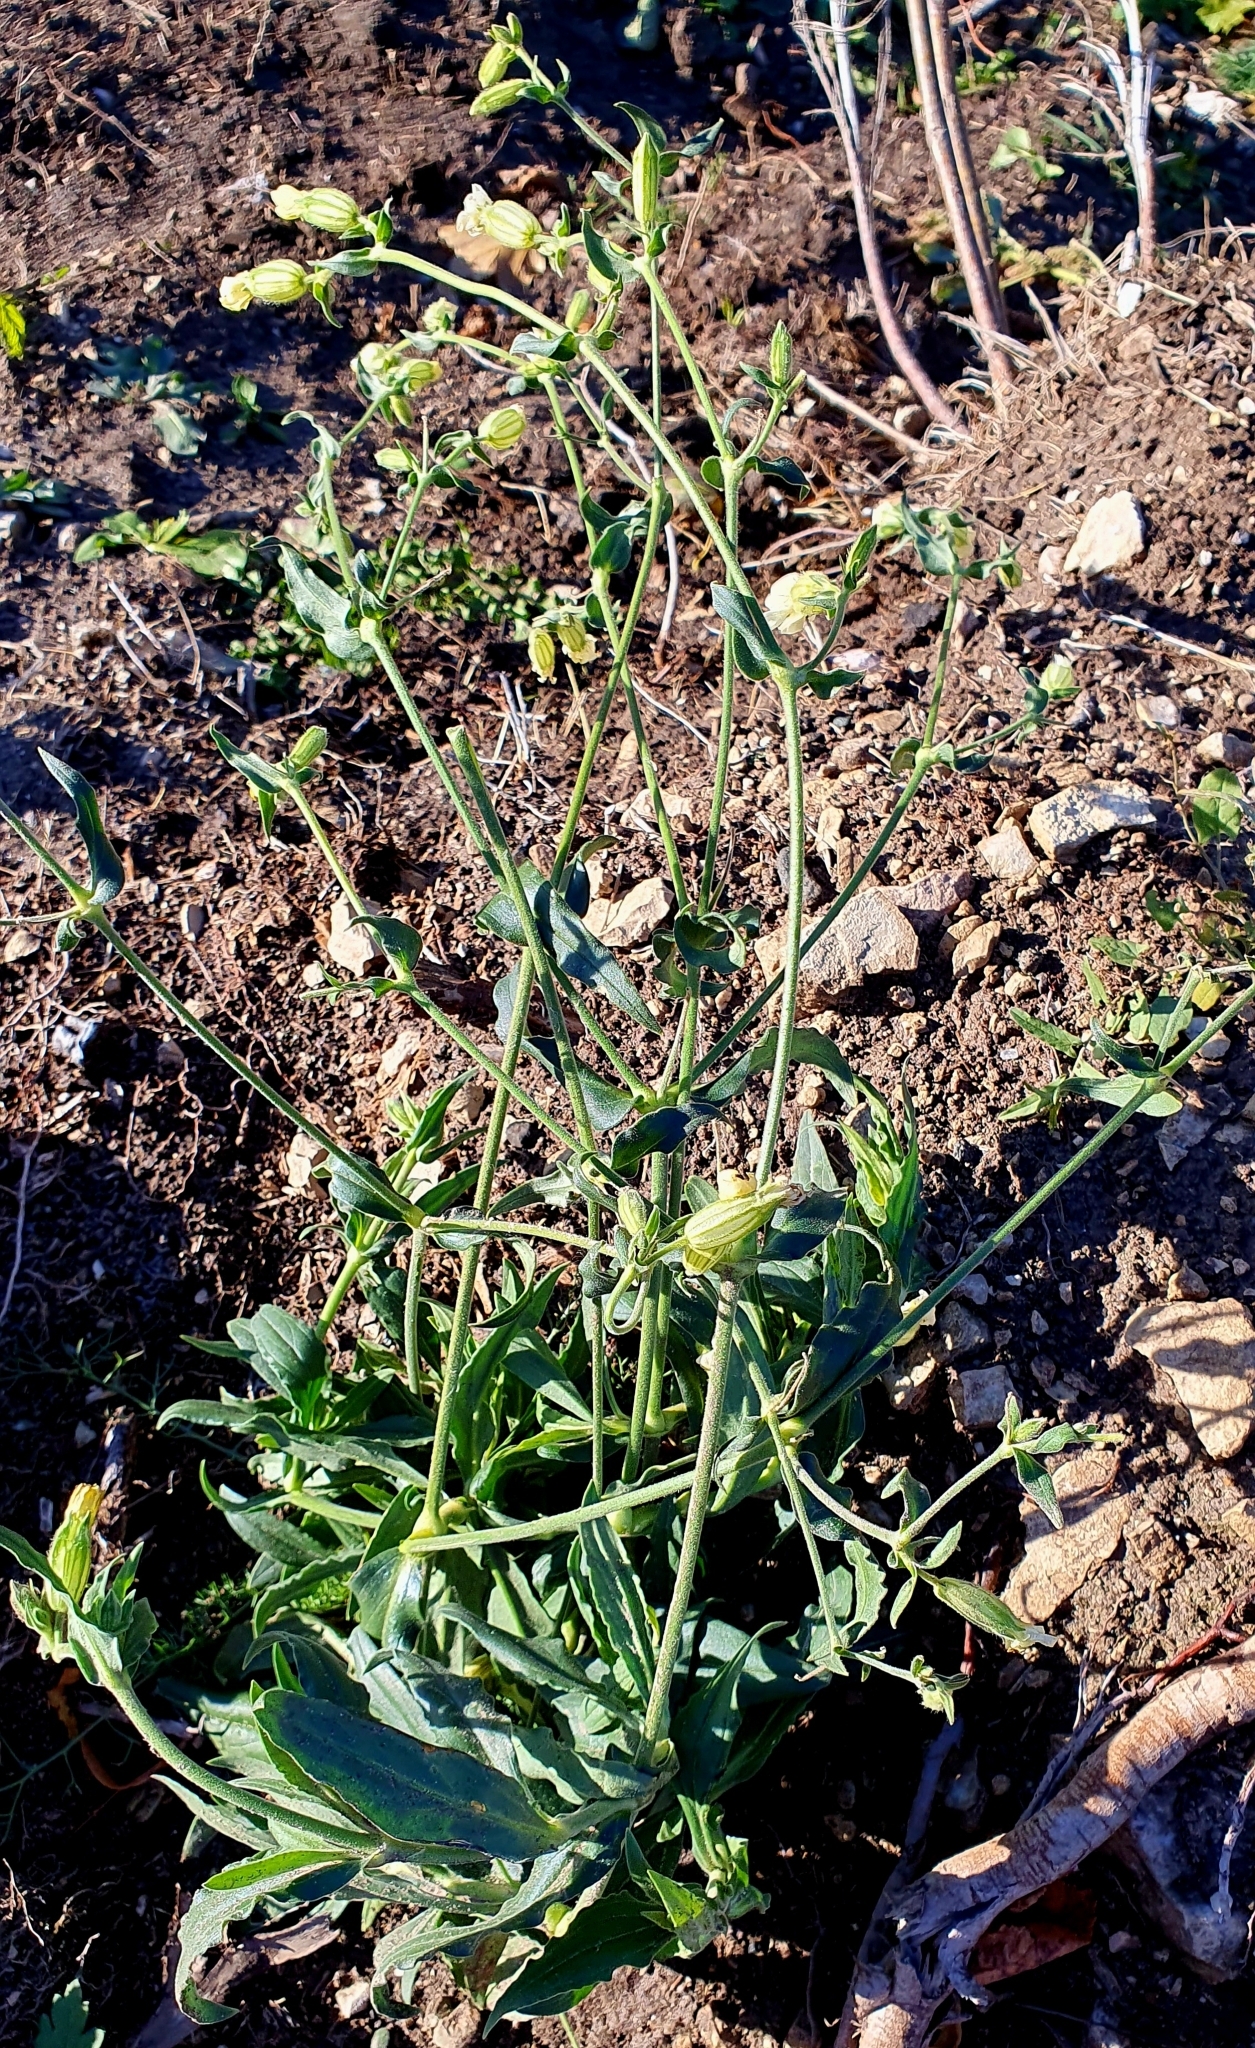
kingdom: Plantae
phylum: Tracheophyta
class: Magnoliopsida
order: Caryophyllales
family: Caryophyllaceae
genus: Silene
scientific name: Silene latifolia
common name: White campion
